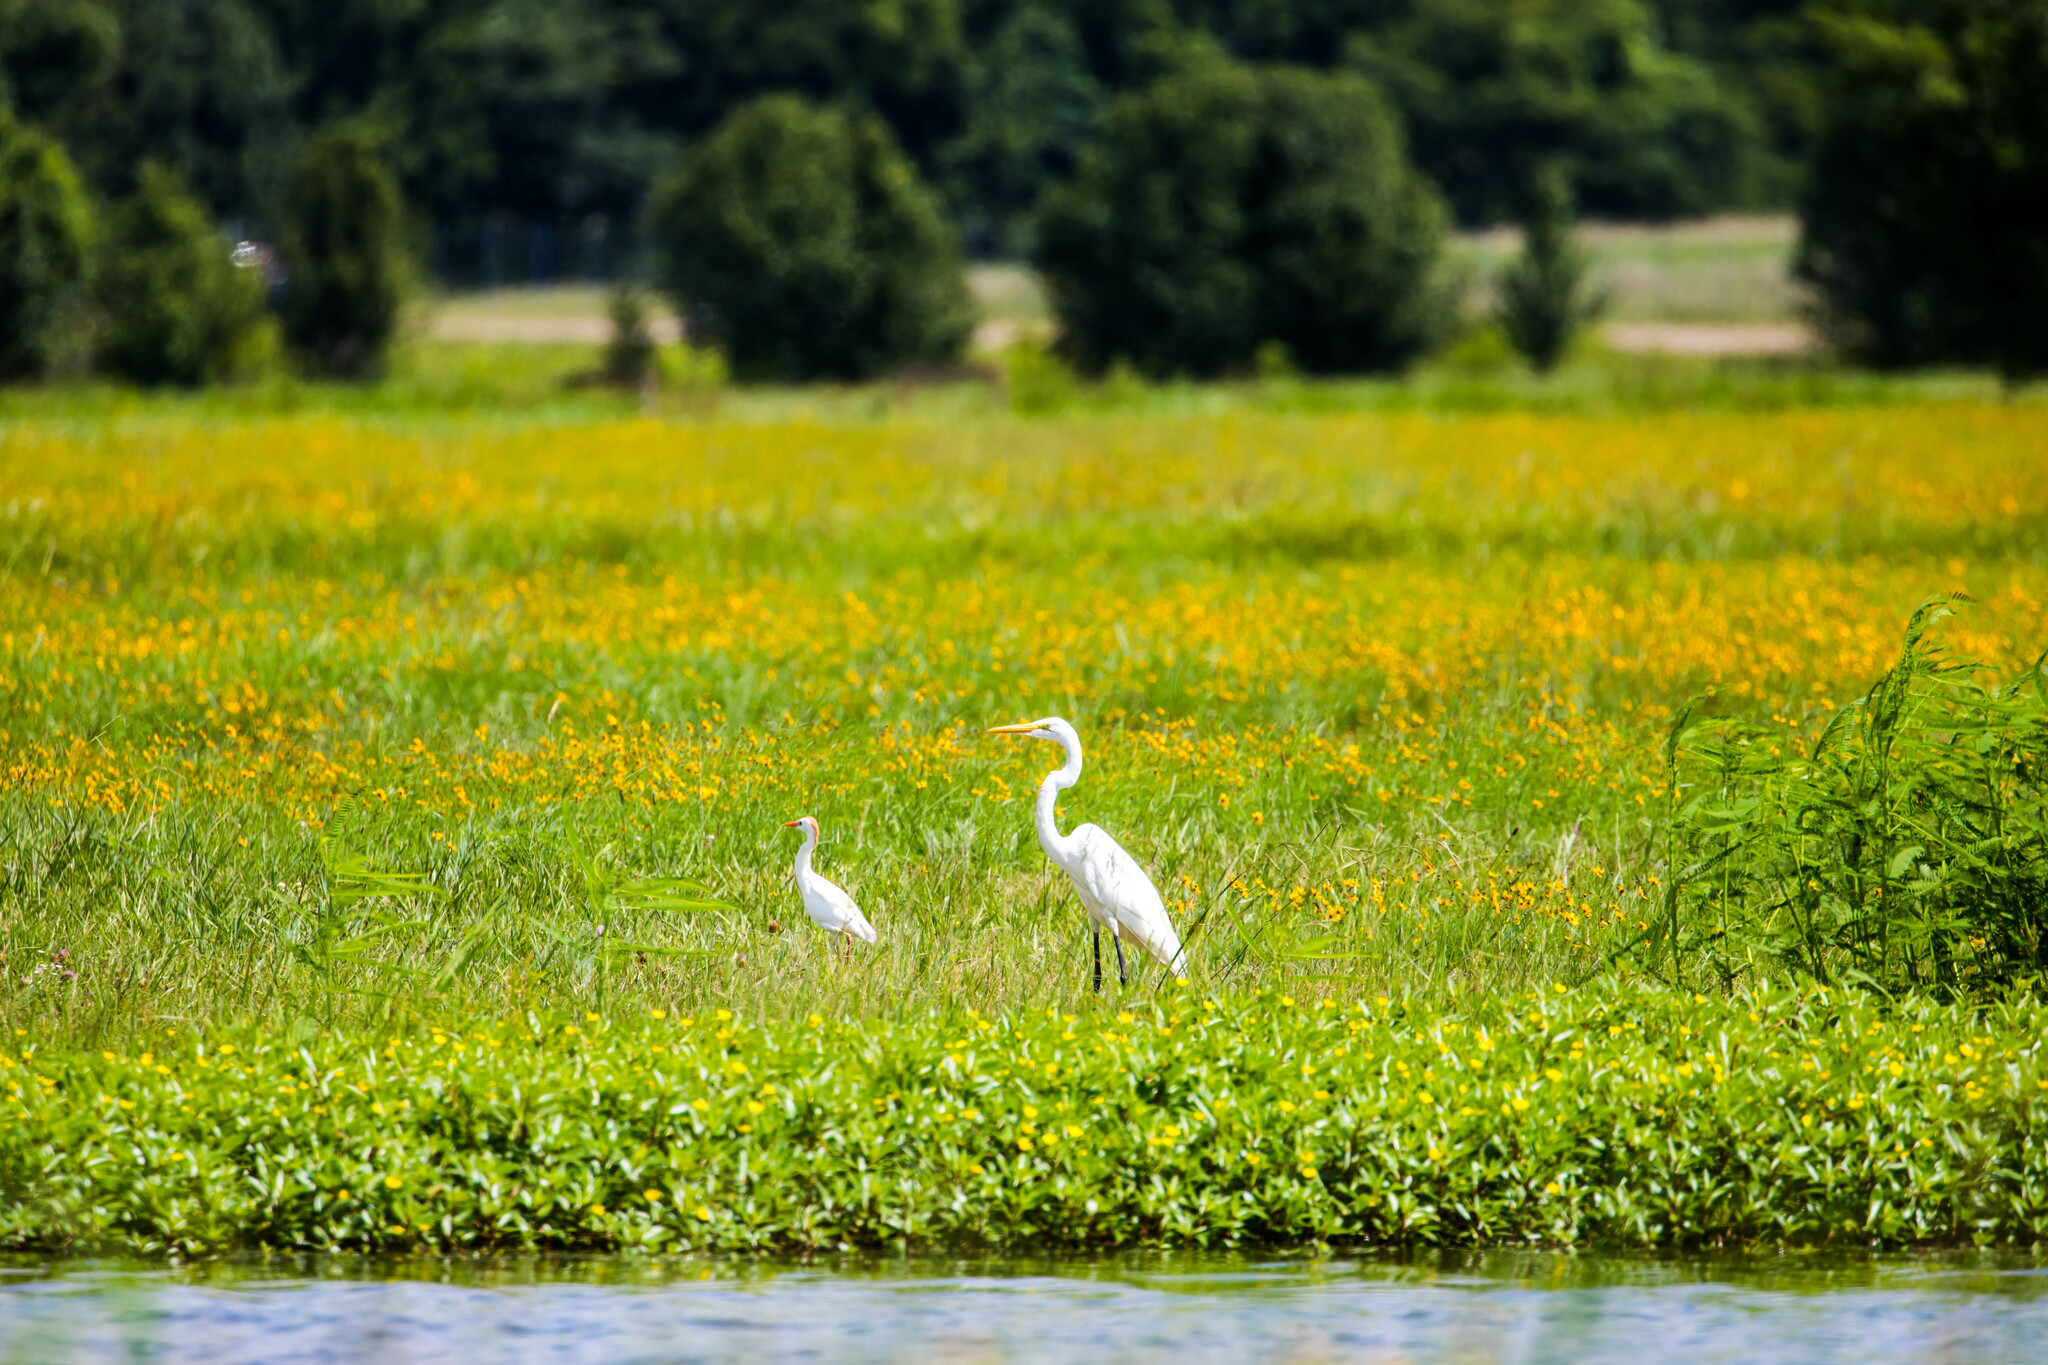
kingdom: Animalia
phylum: Chordata
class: Aves
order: Pelecaniformes
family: Ardeidae
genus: Ardea
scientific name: Ardea alba
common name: Great egret
